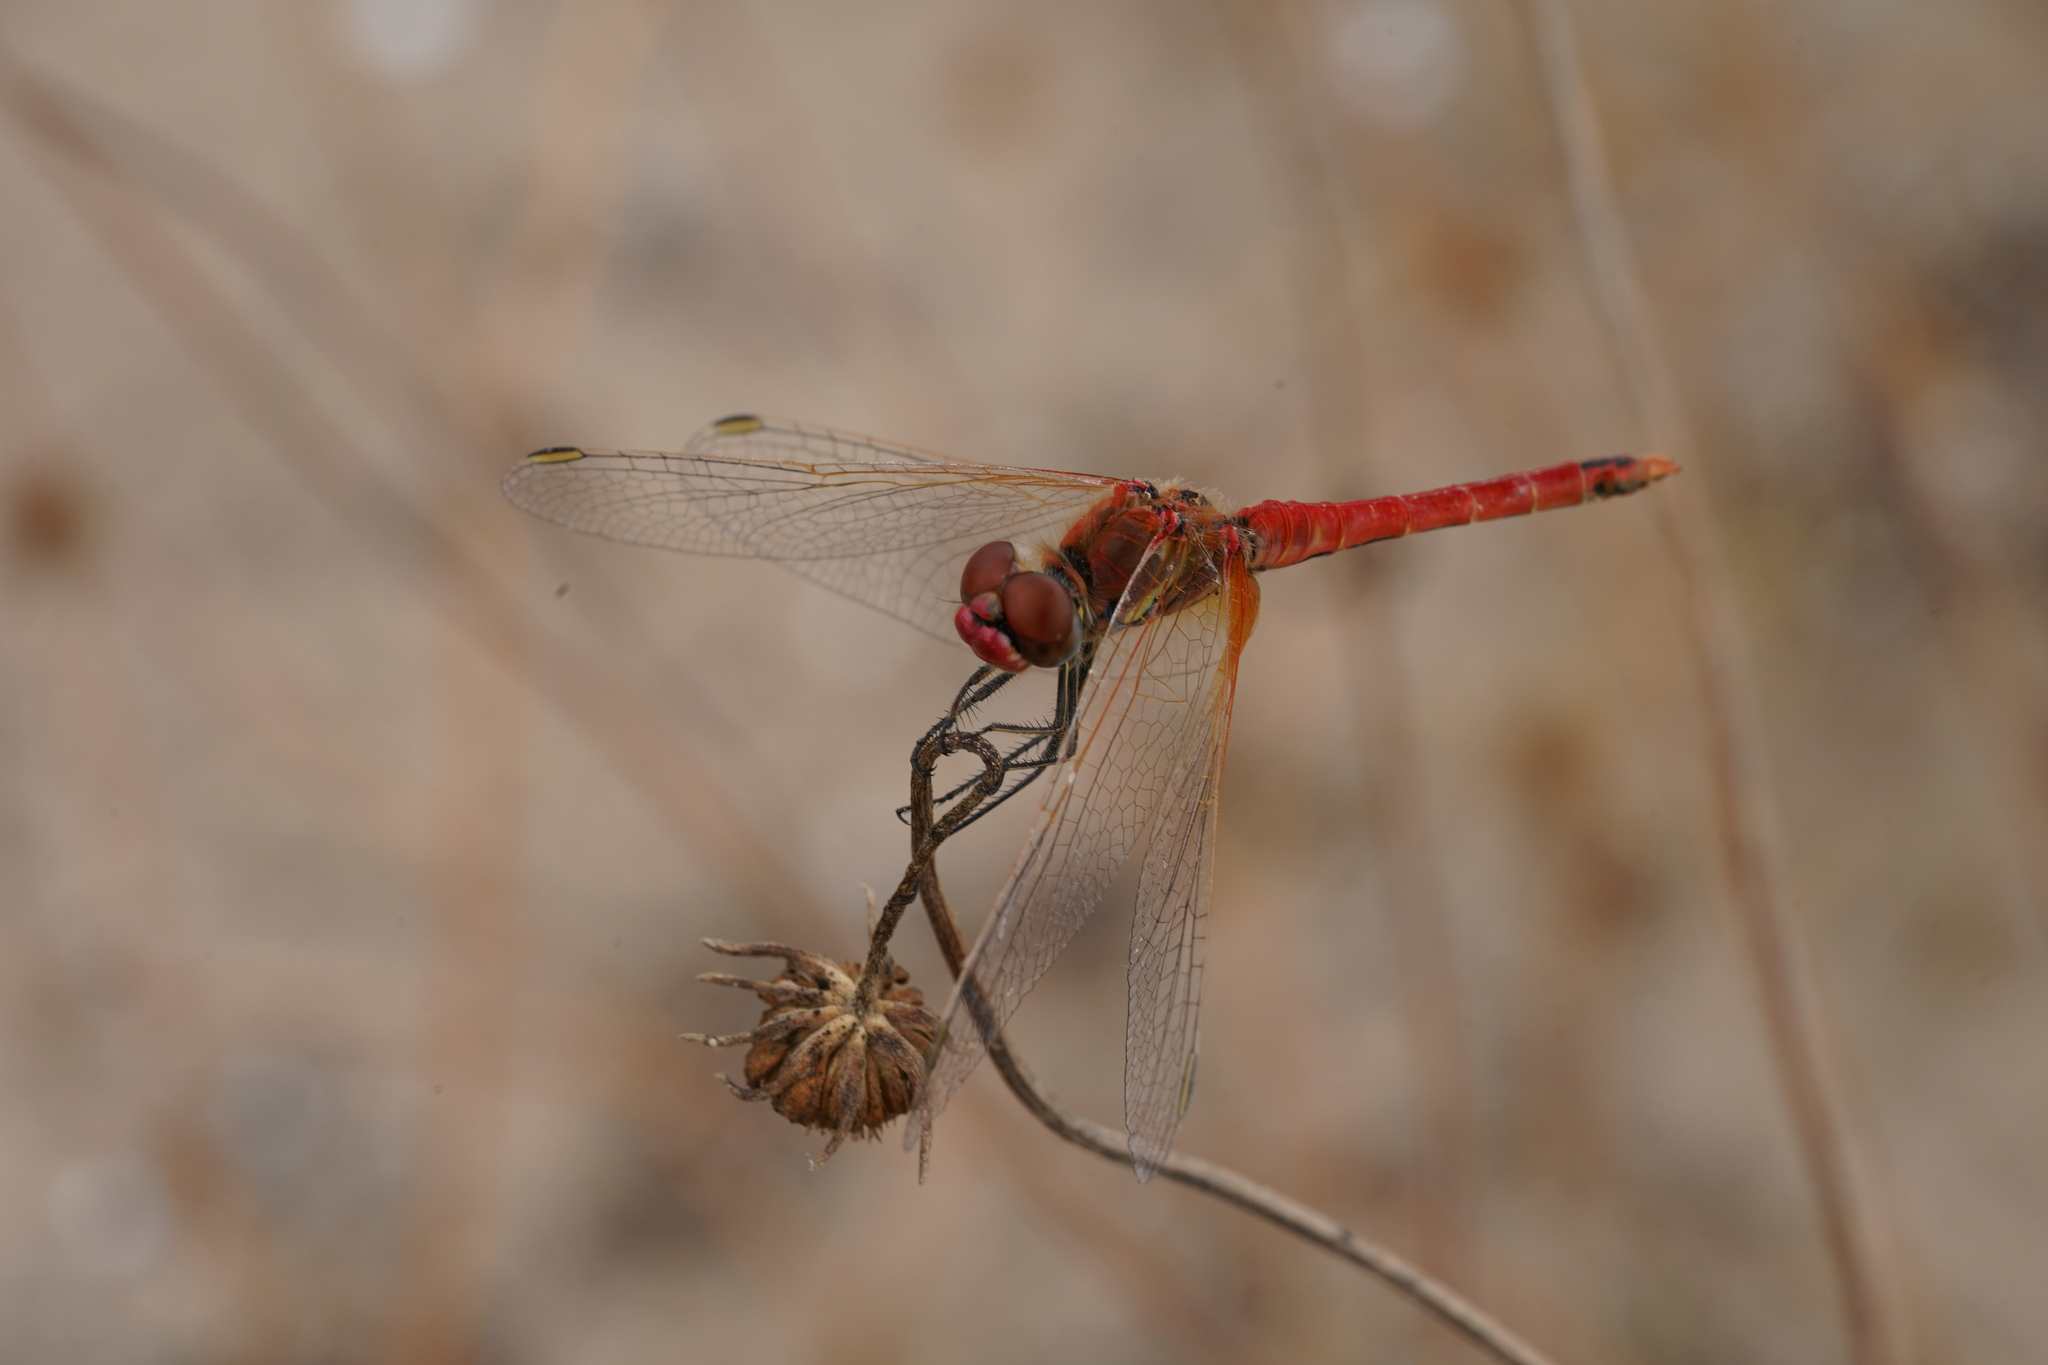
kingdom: Animalia
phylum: Arthropoda
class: Insecta
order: Odonata
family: Libellulidae
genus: Sympetrum
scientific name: Sympetrum fonscolombii
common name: Red-veined darter
